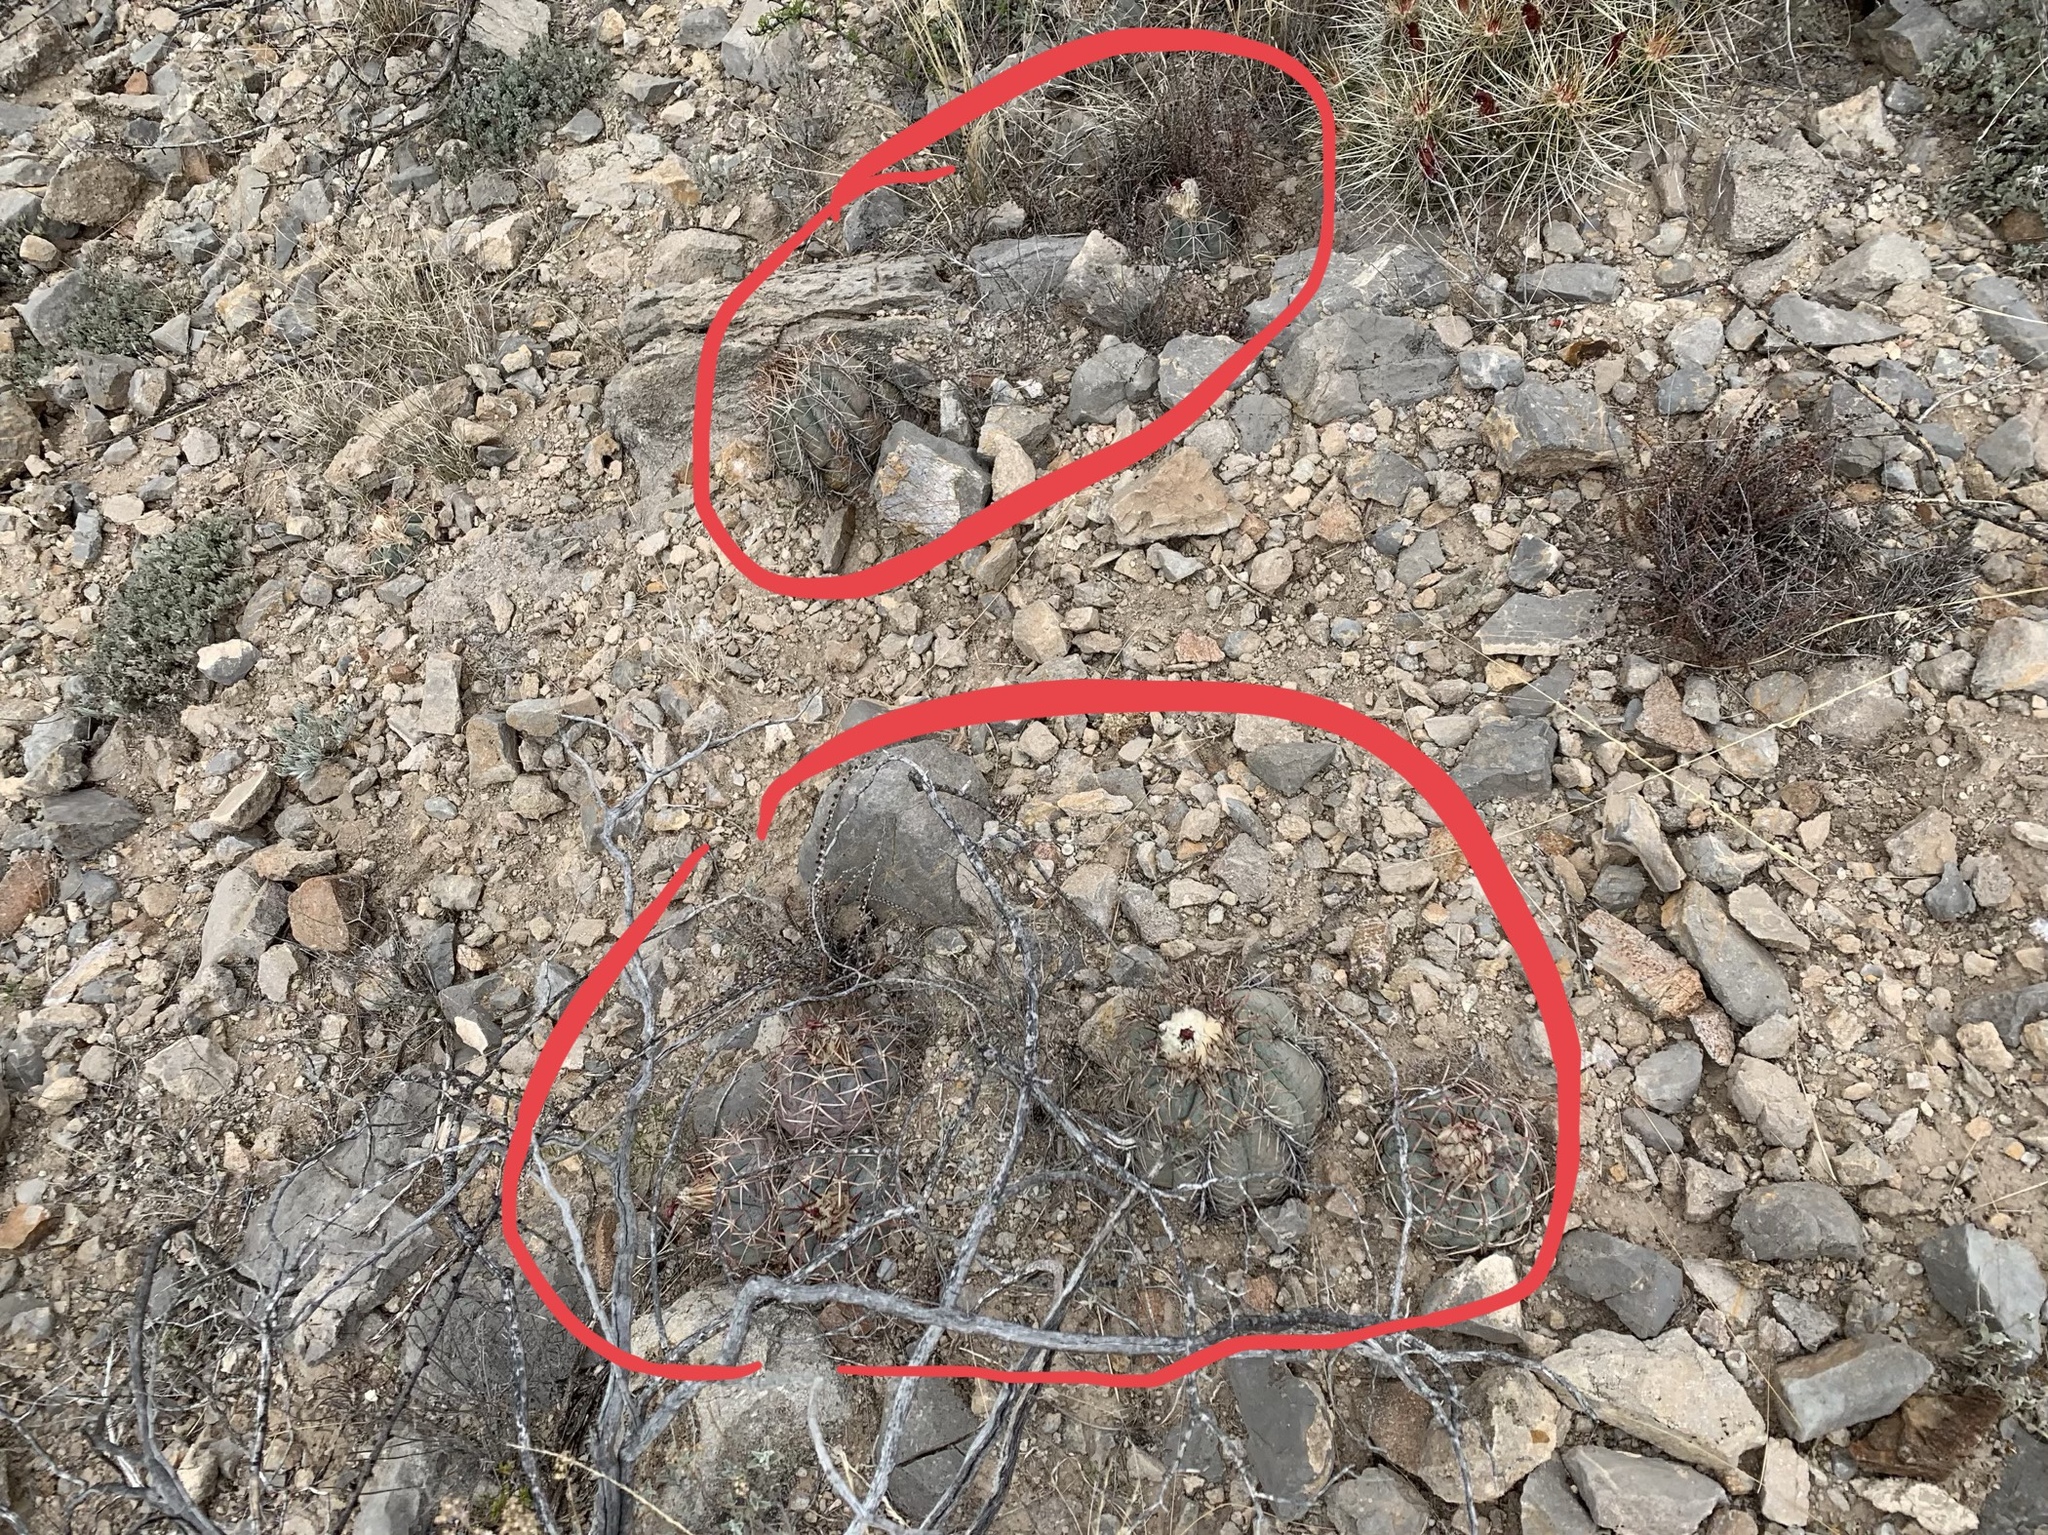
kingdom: Plantae
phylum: Tracheophyta
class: Magnoliopsida
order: Caryophyllales
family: Cactaceae
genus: Echinocactus
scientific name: Echinocactus horizonthalonius
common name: Devilshead
